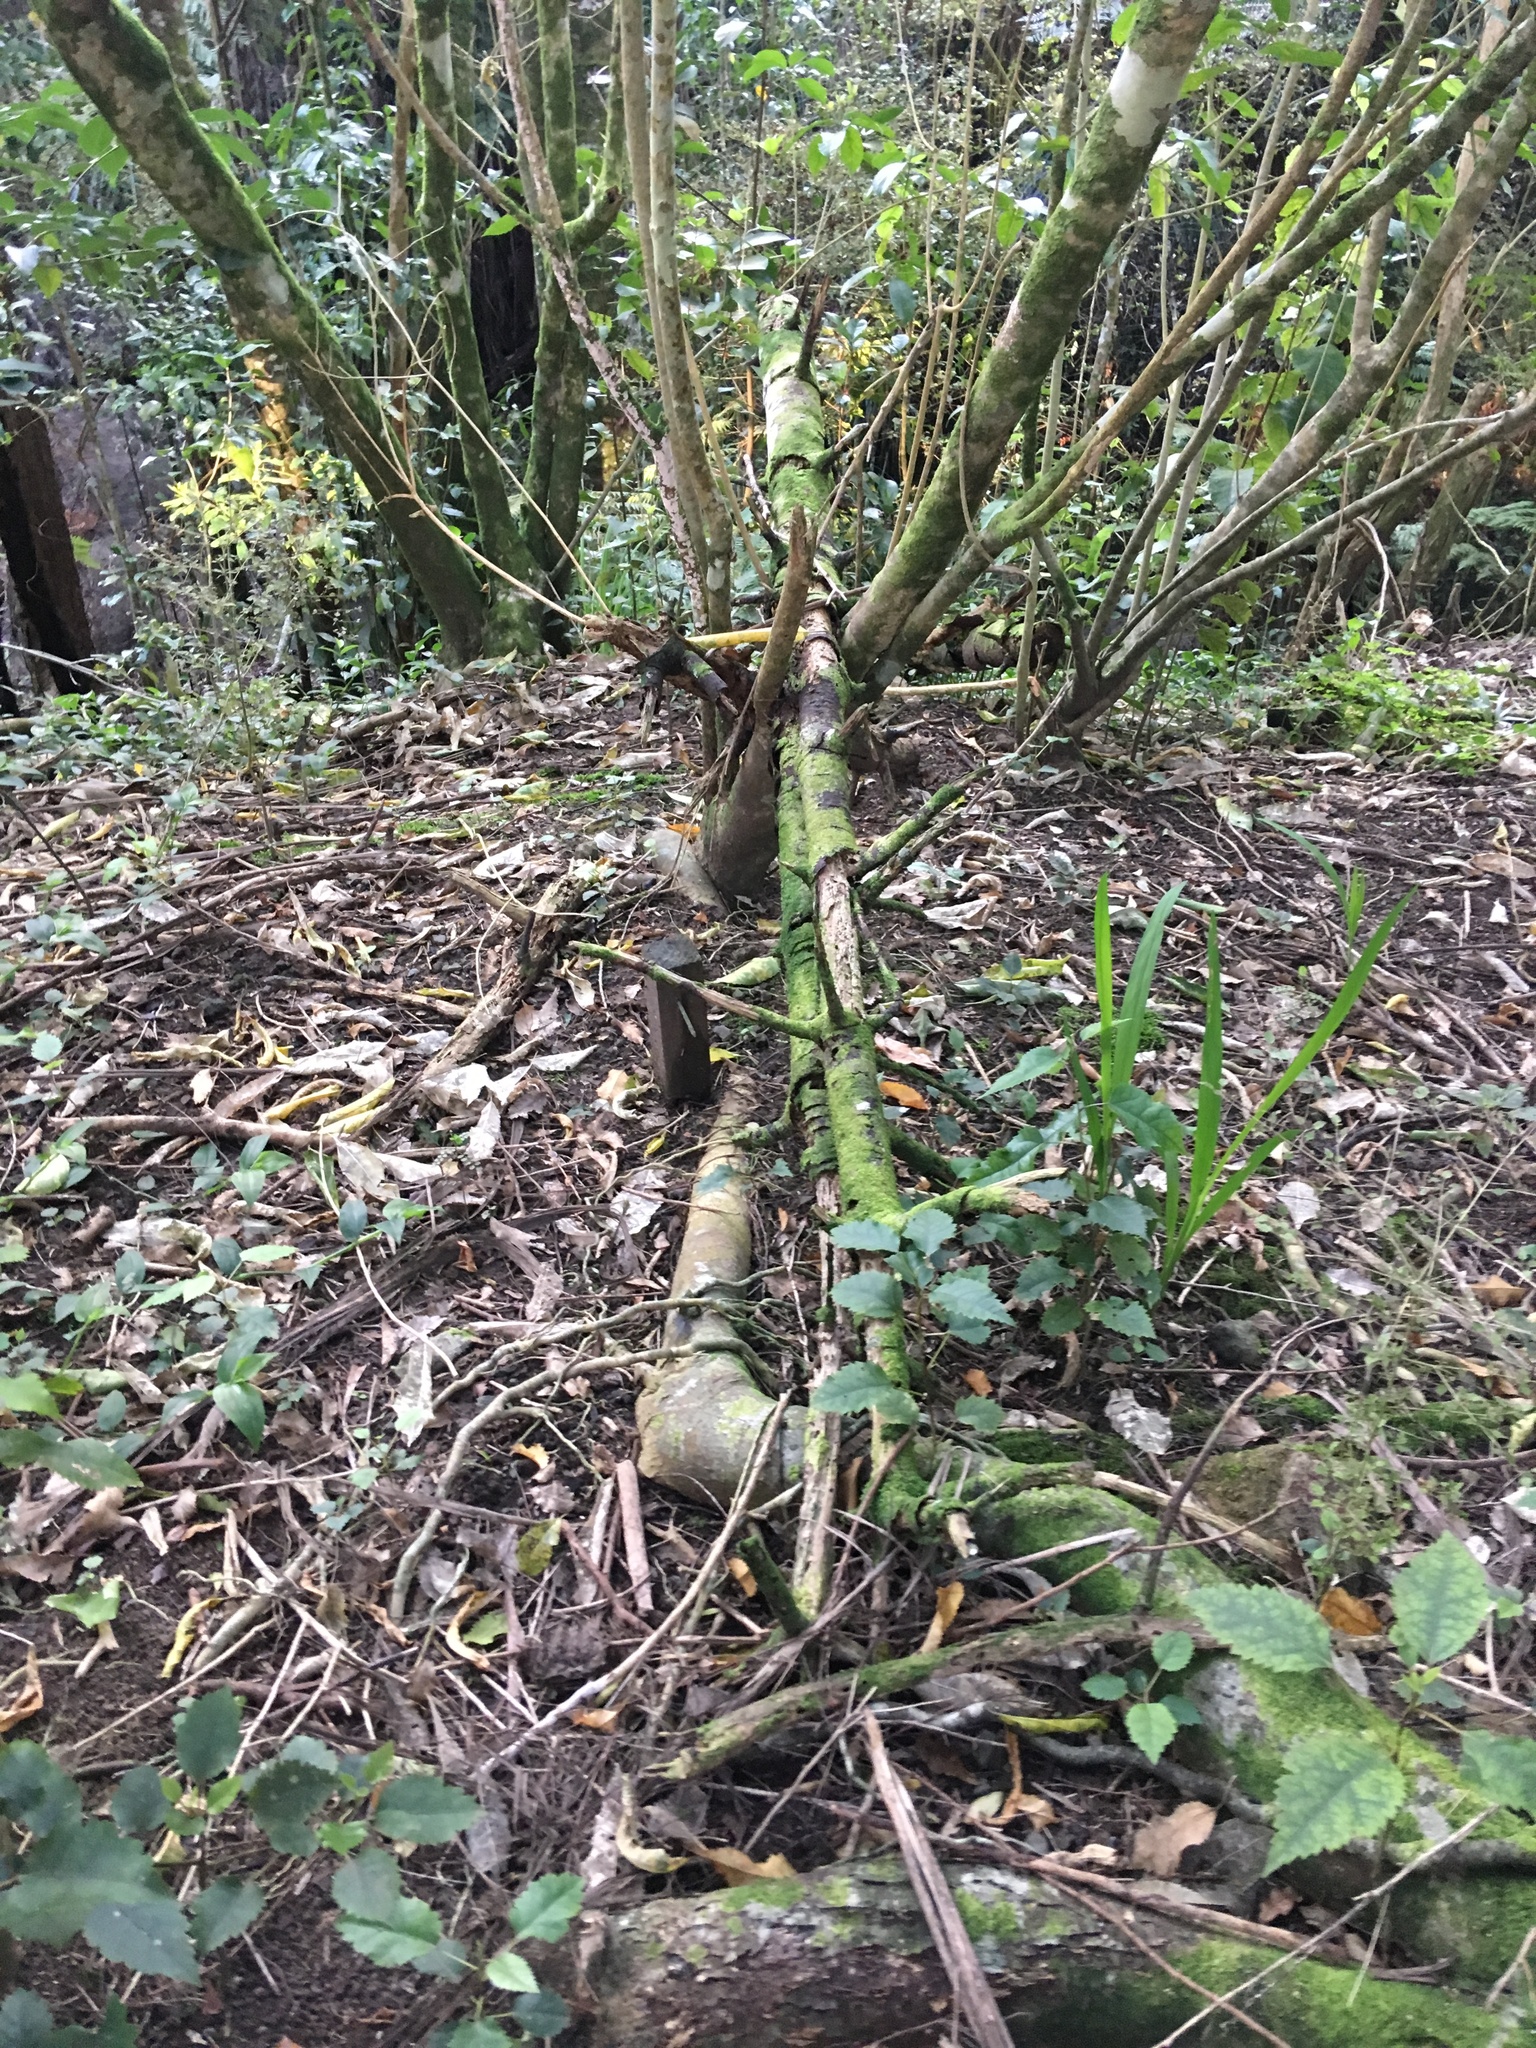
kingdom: Plantae
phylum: Tracheophyta
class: Liliopsida
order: Commelinales
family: Commelinaceae
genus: Tradescantia
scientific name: Tradescantia fluminensis
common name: Wandering-jew
